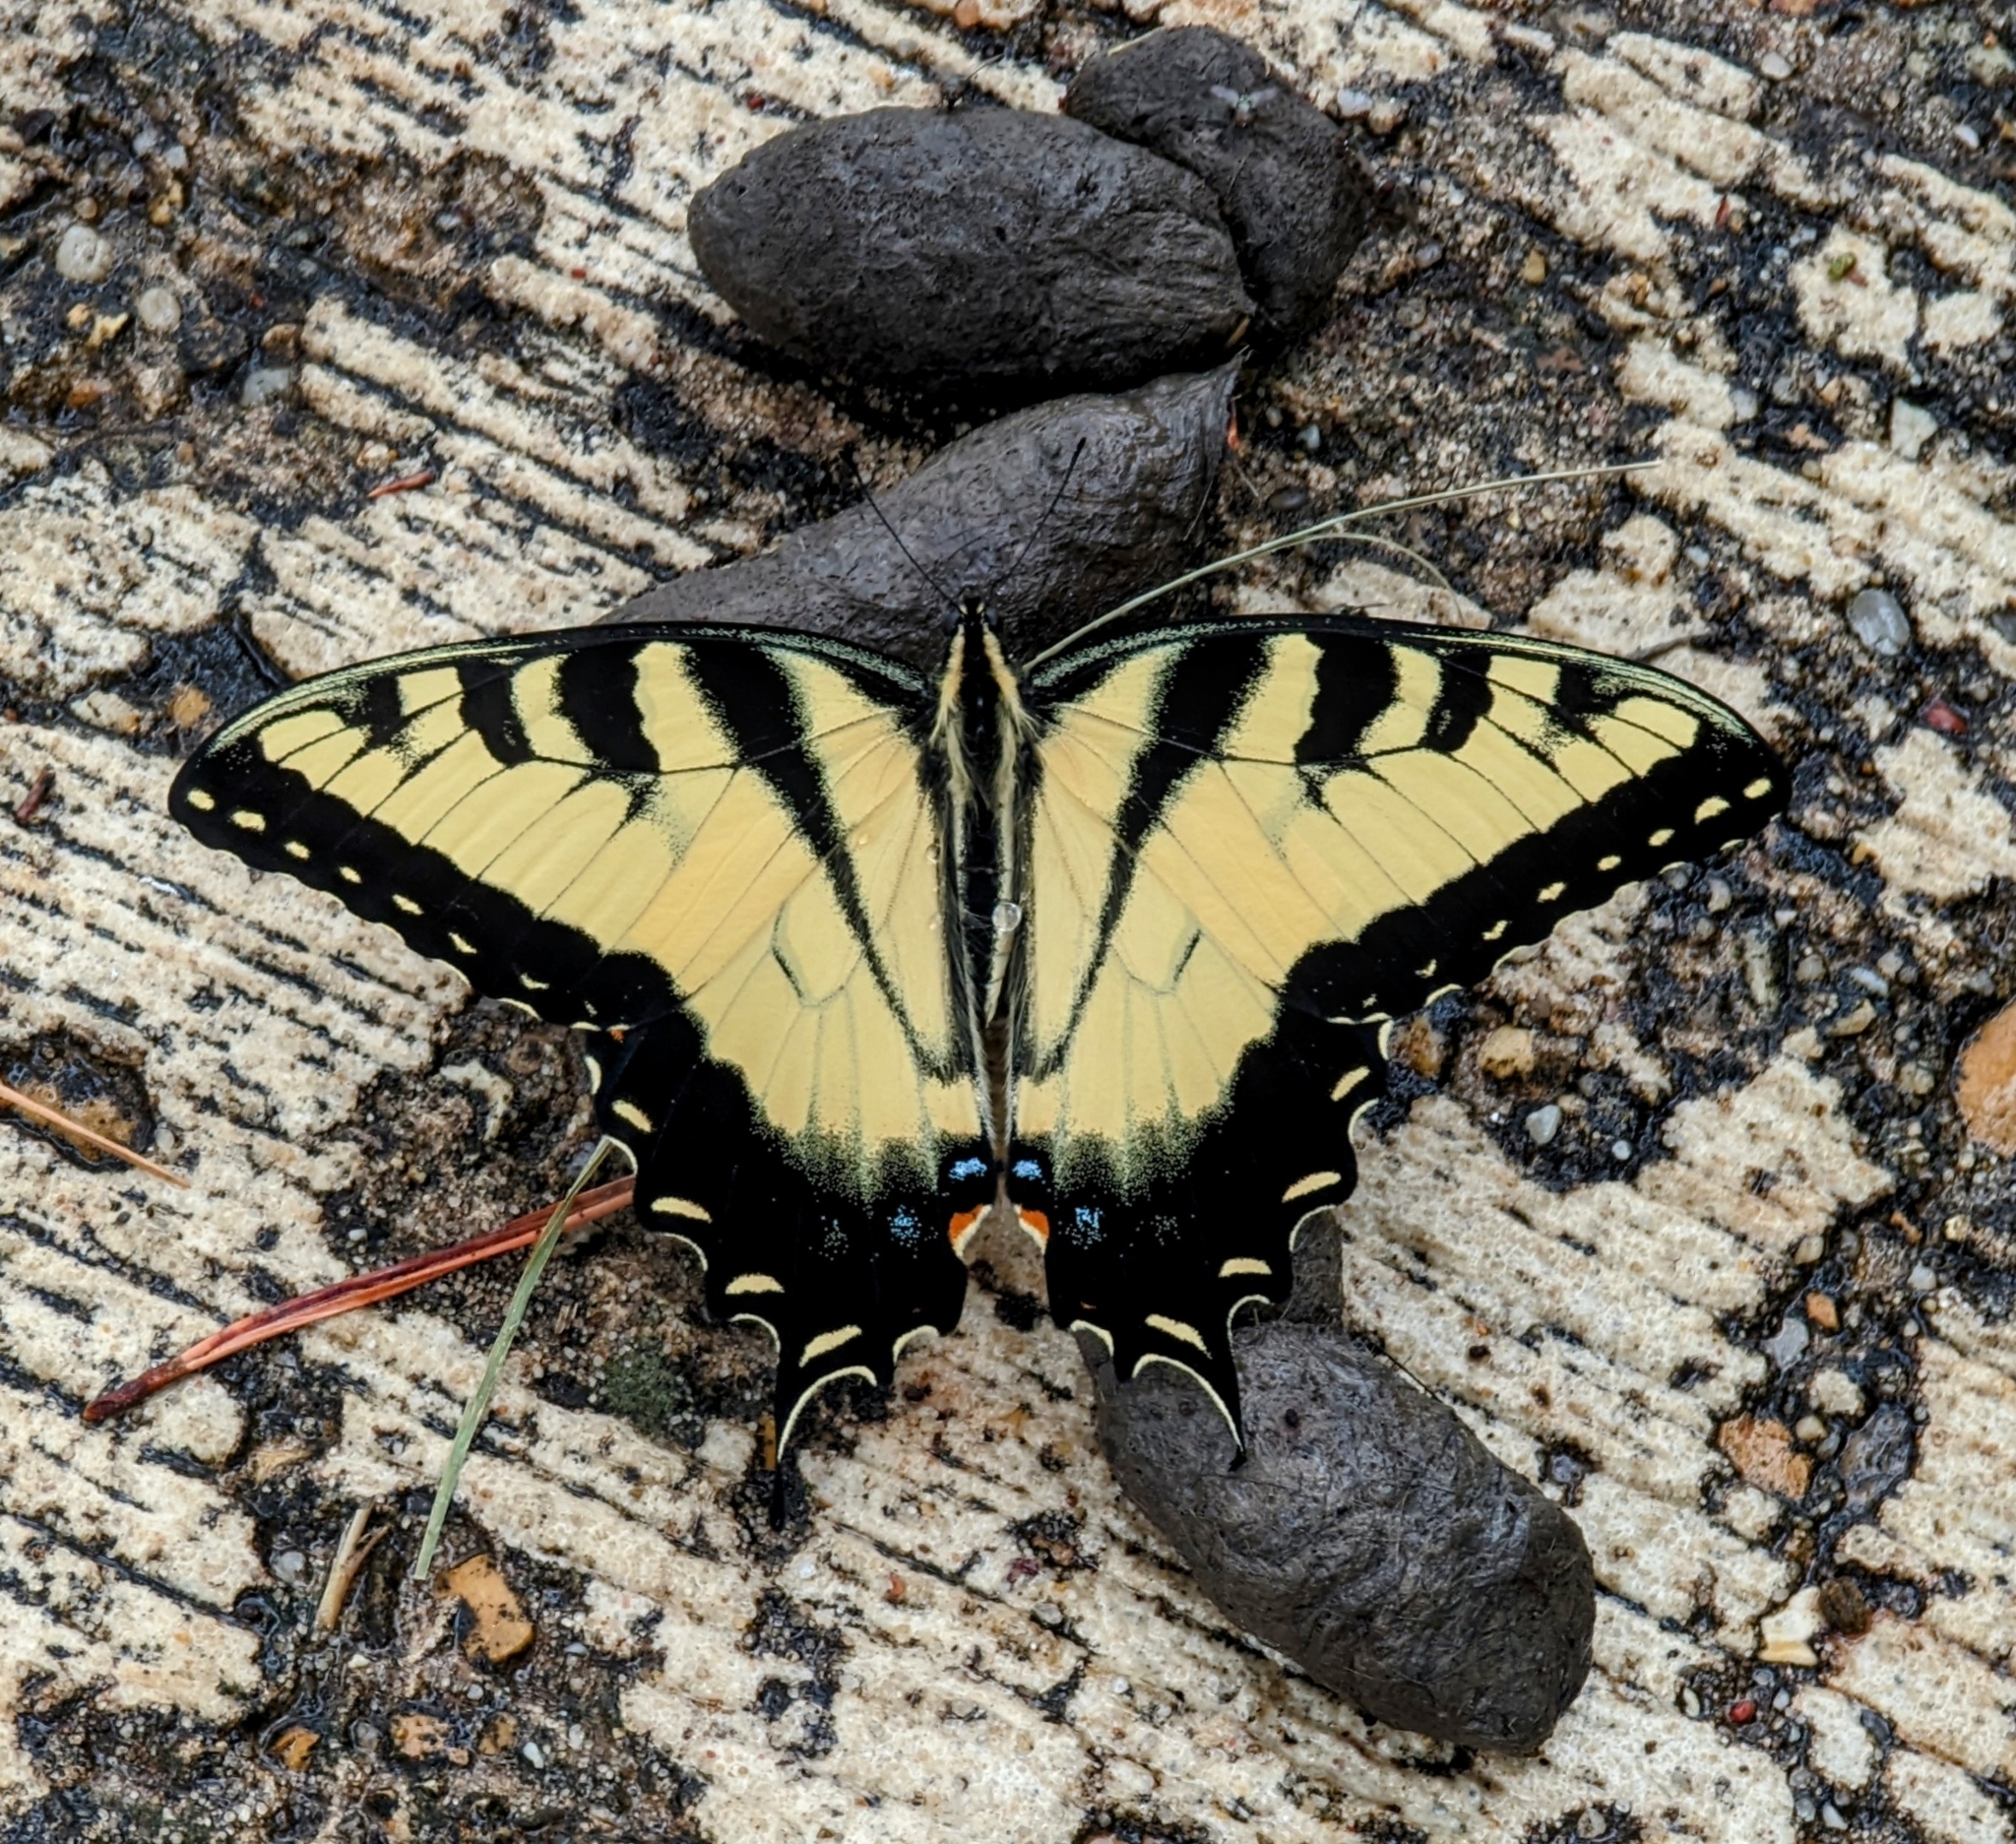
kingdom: Animalia
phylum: Arthropoda
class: Insecta
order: Lepidoptera
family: Papilionidae
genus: Papilio
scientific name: Papilio glaucus
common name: Tiger swallowtail
